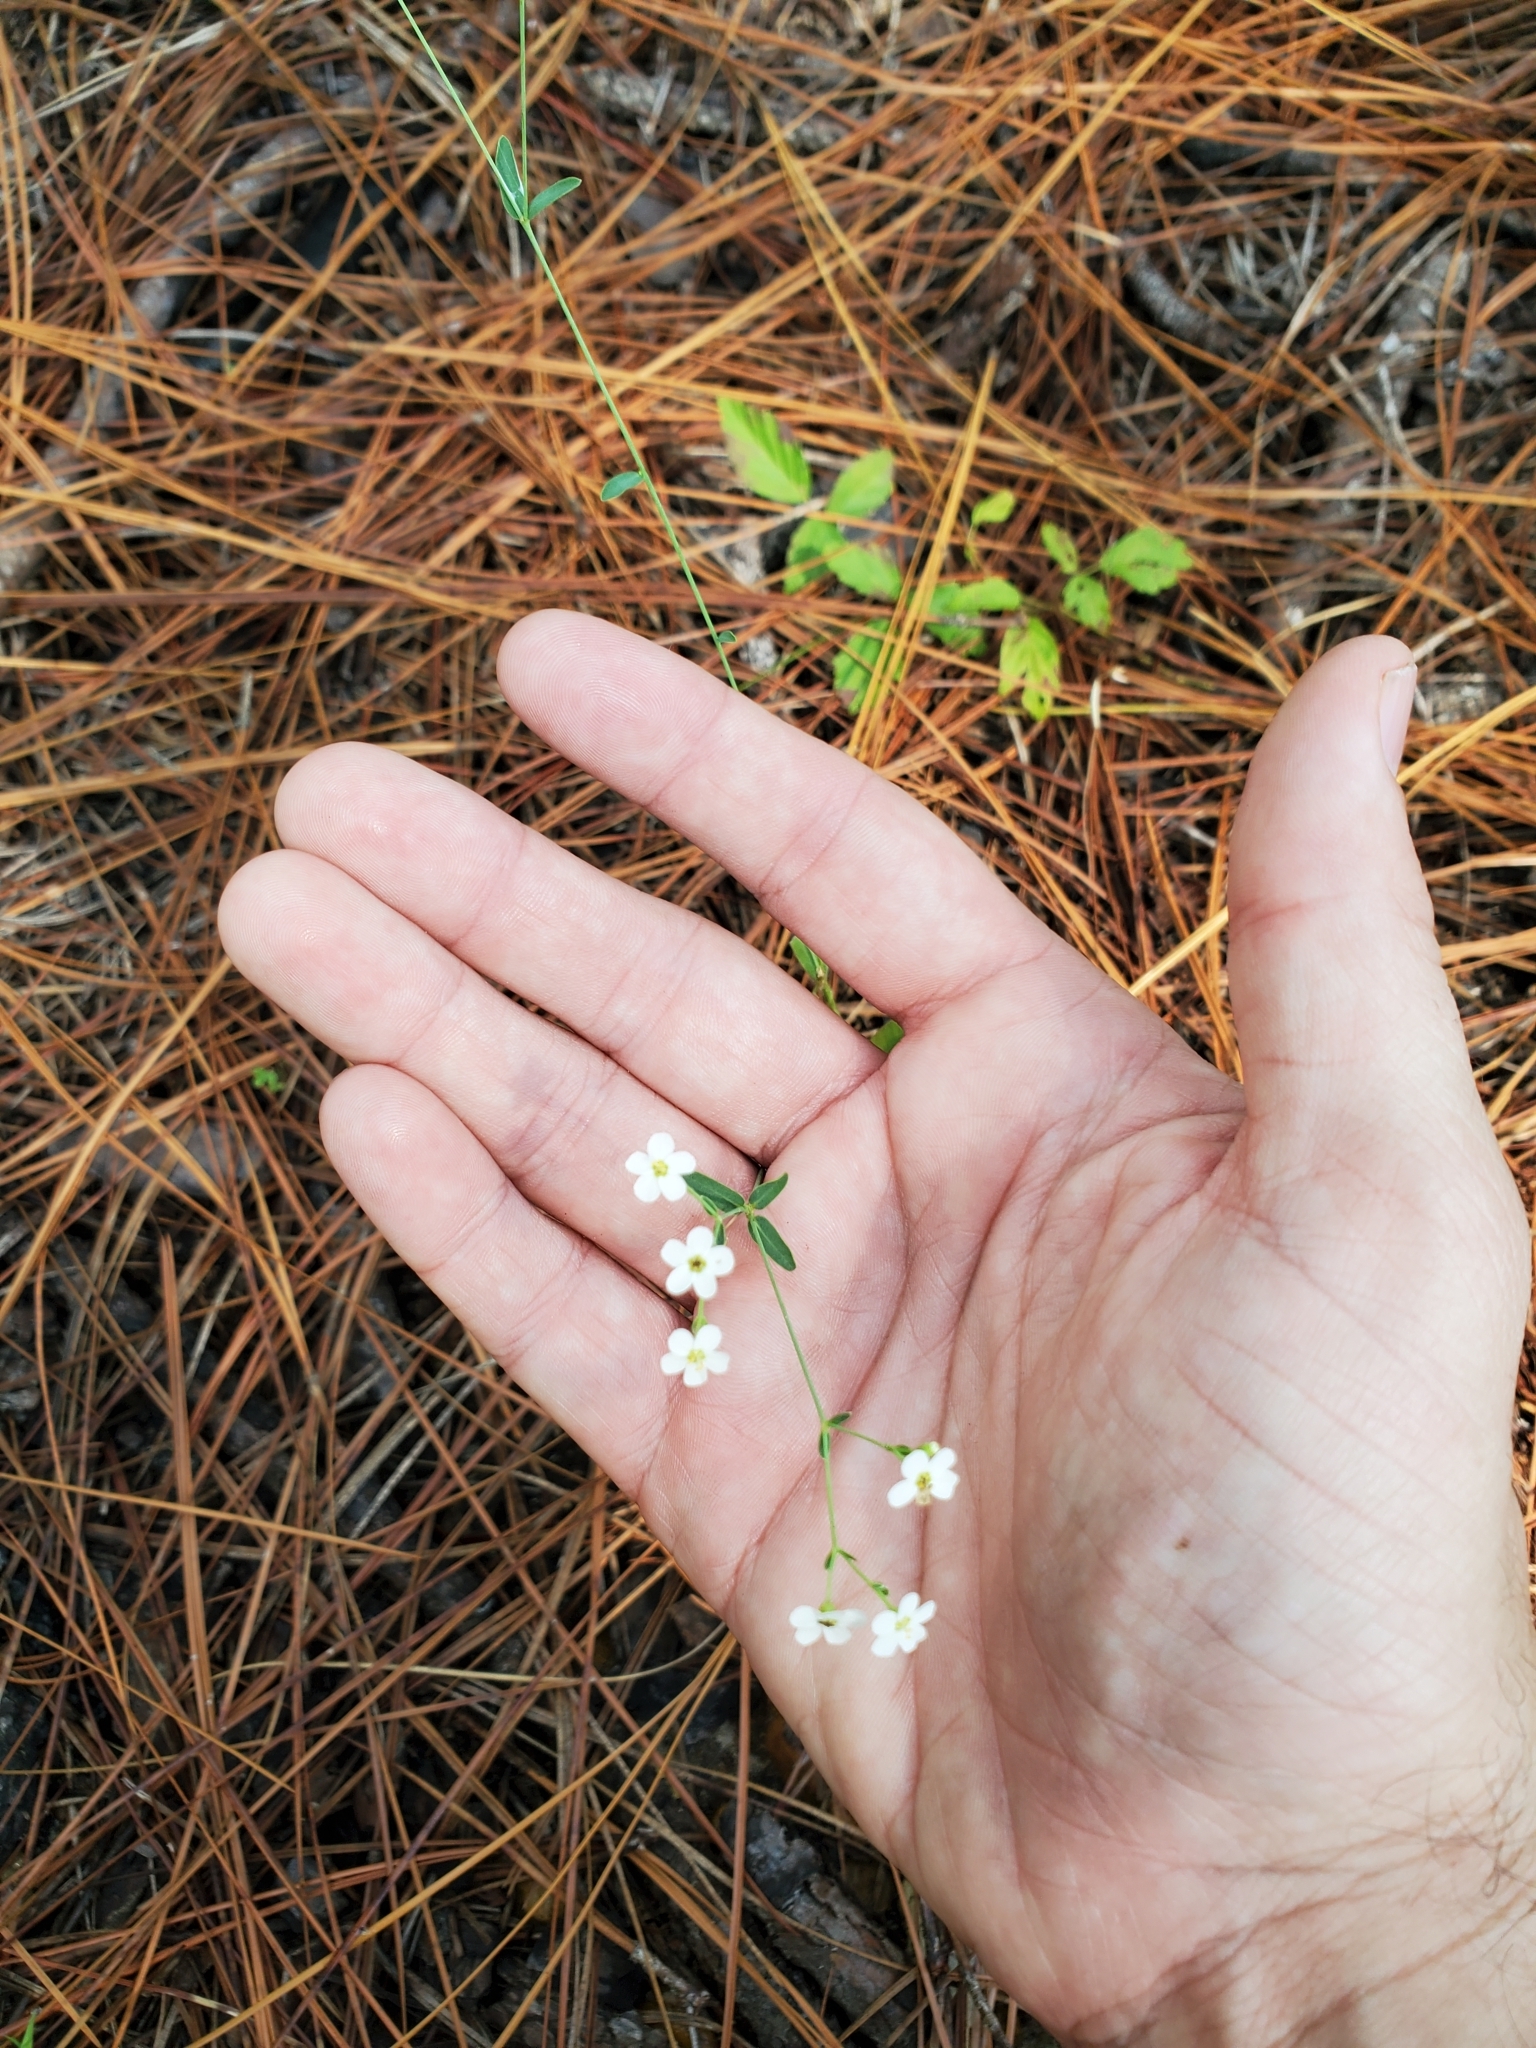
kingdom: Plantae
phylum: Tracheophyta
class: Magnoliopsida
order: Malpighiales
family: Euphorbiaceae
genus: Euphorbia
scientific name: Euphorbia corollata
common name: Flowering spurge
